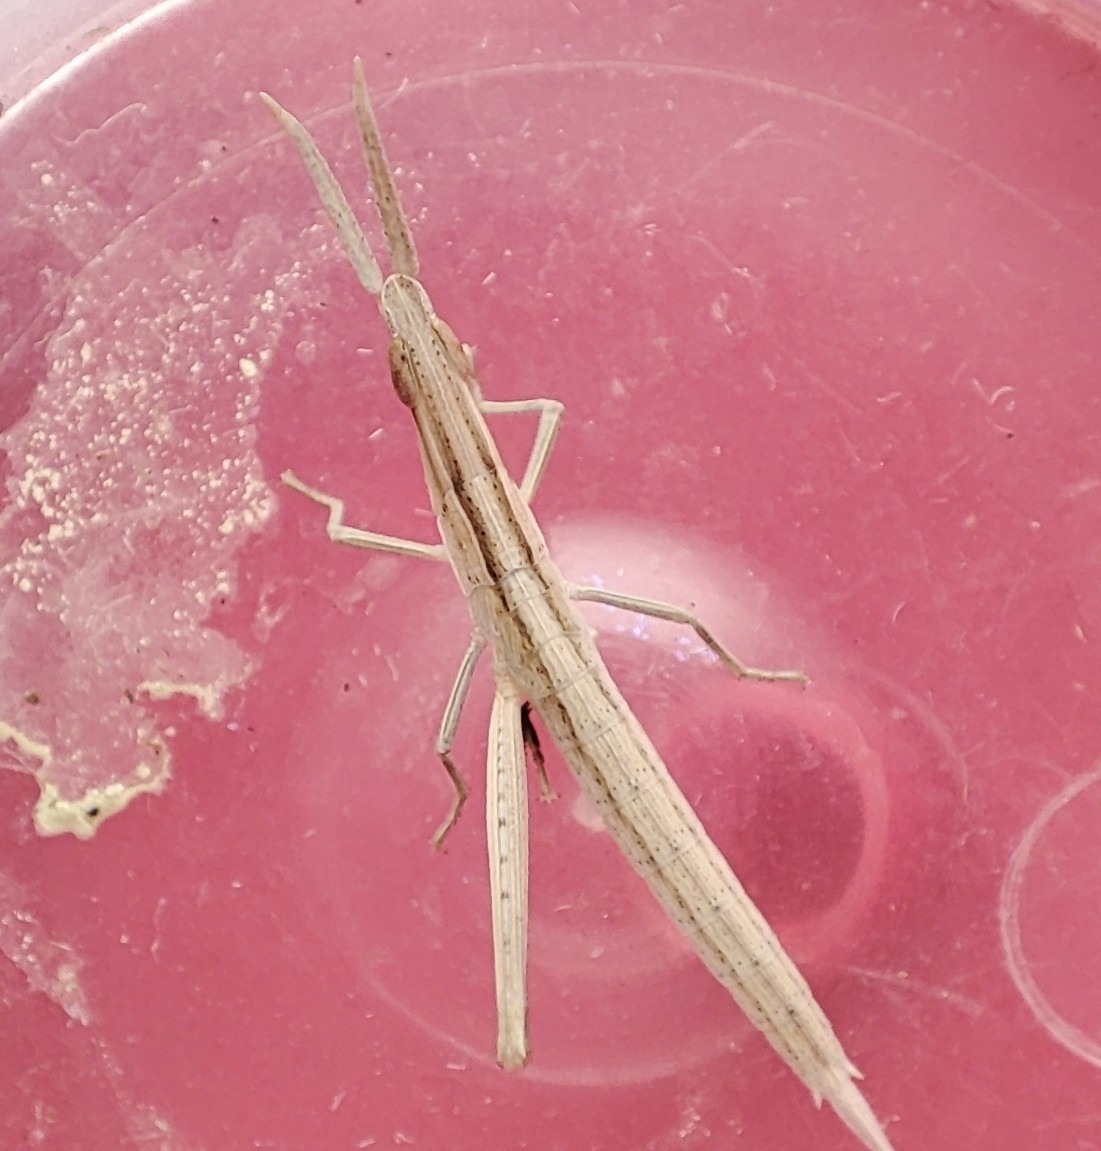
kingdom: Animalia
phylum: Arthropoda
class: Insecta
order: Orthoptera
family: Acrididae
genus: Acrida
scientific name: Acrida ungarica
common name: Common cone-headed grasshopper
